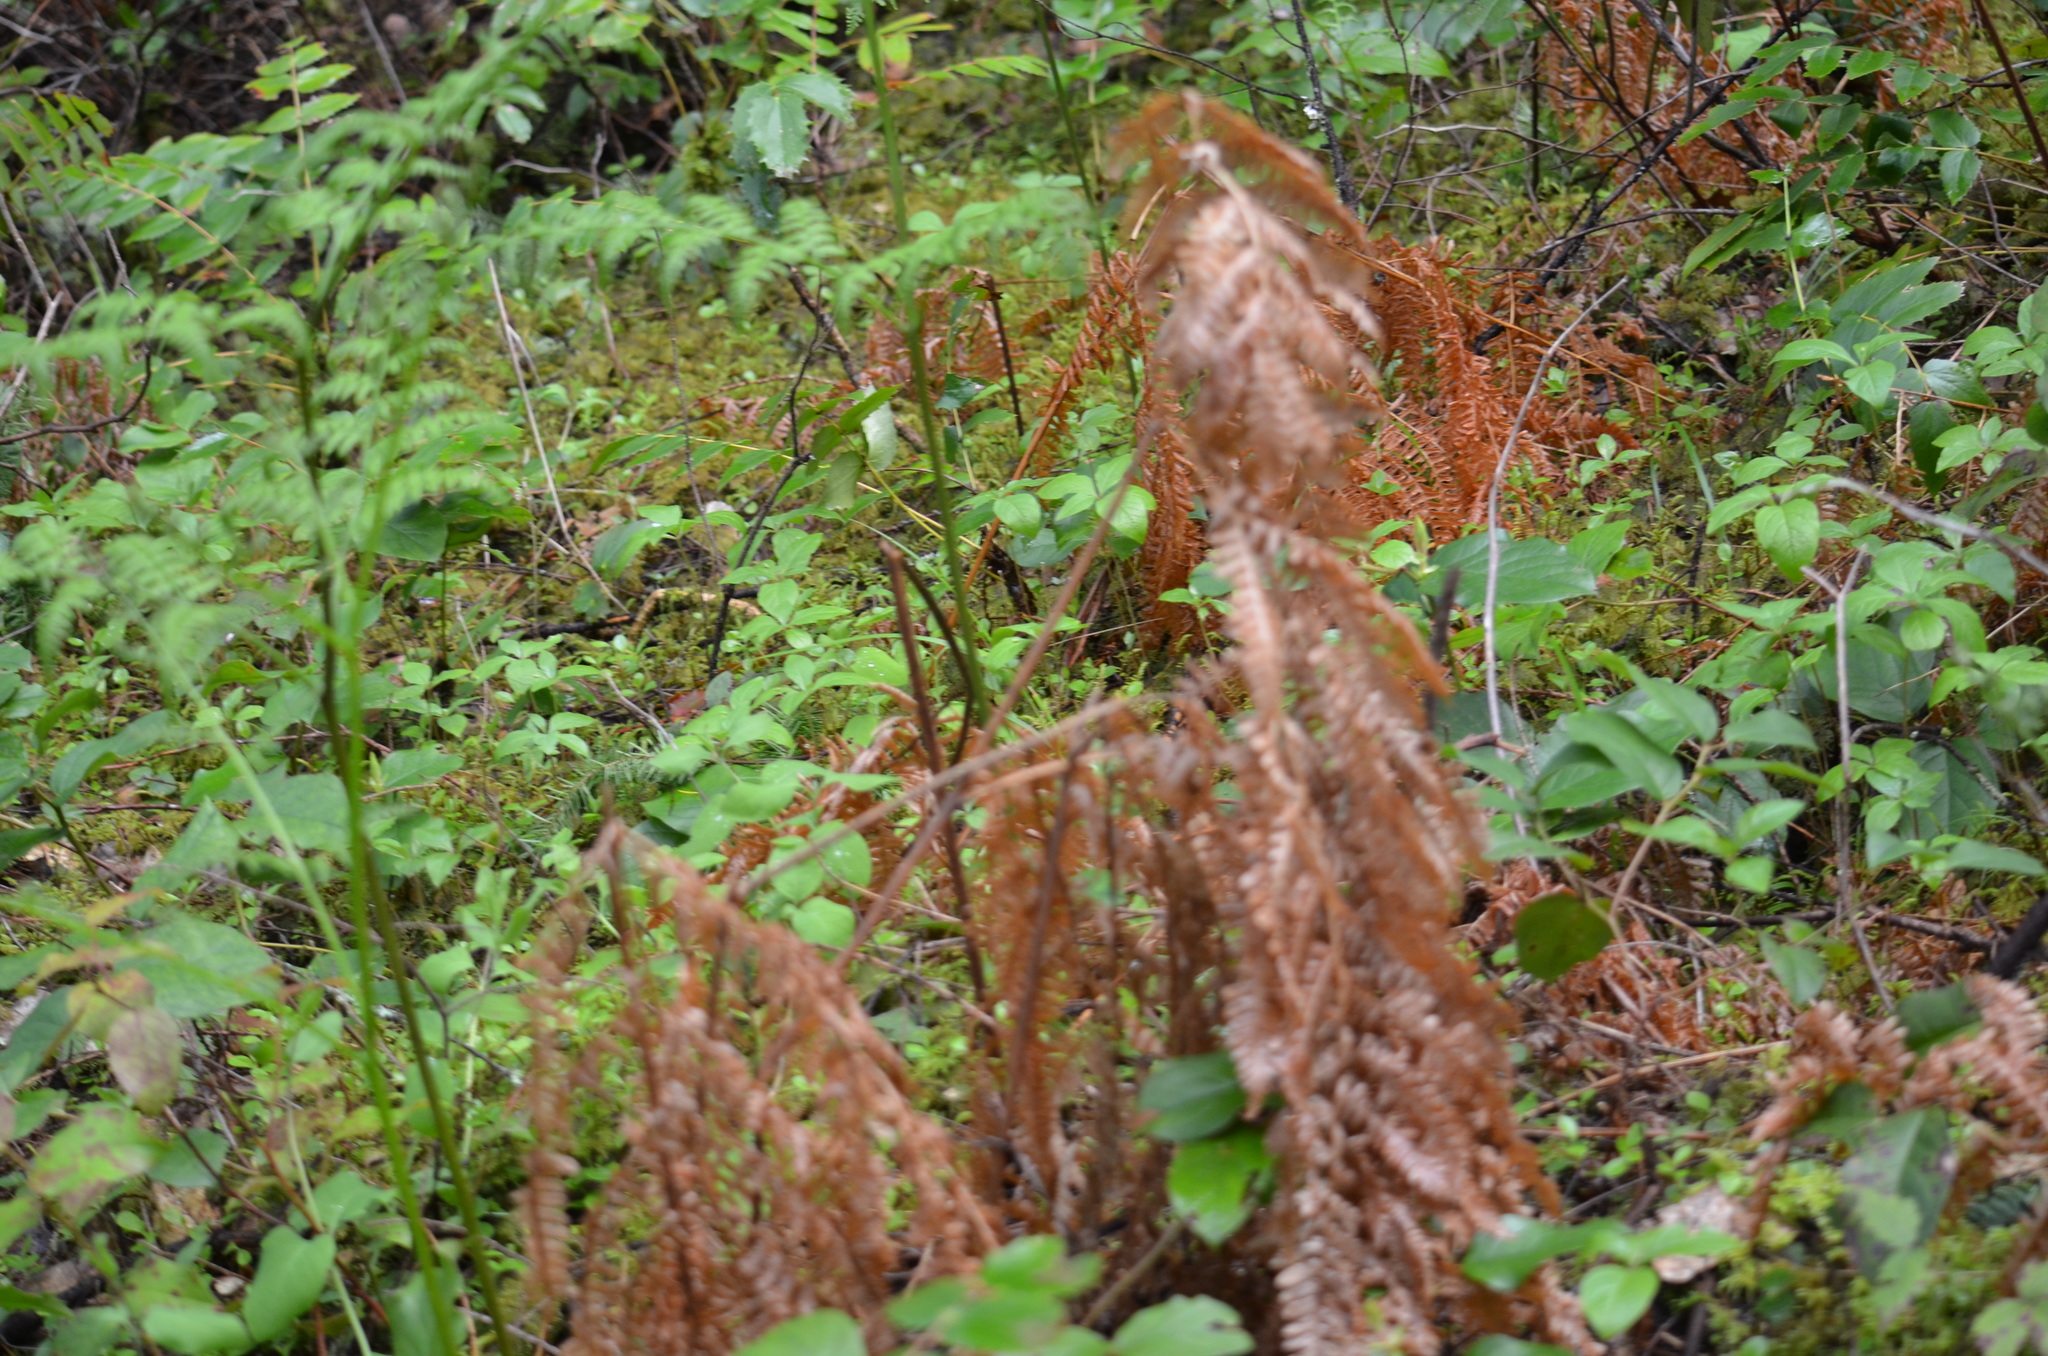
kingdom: Plantae
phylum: Tracheophyta
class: Polypodiopsida
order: Polypodiales
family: Dennstaedtiaceae
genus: Pteridium
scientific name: Pteridium aquilinum
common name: Bracken
